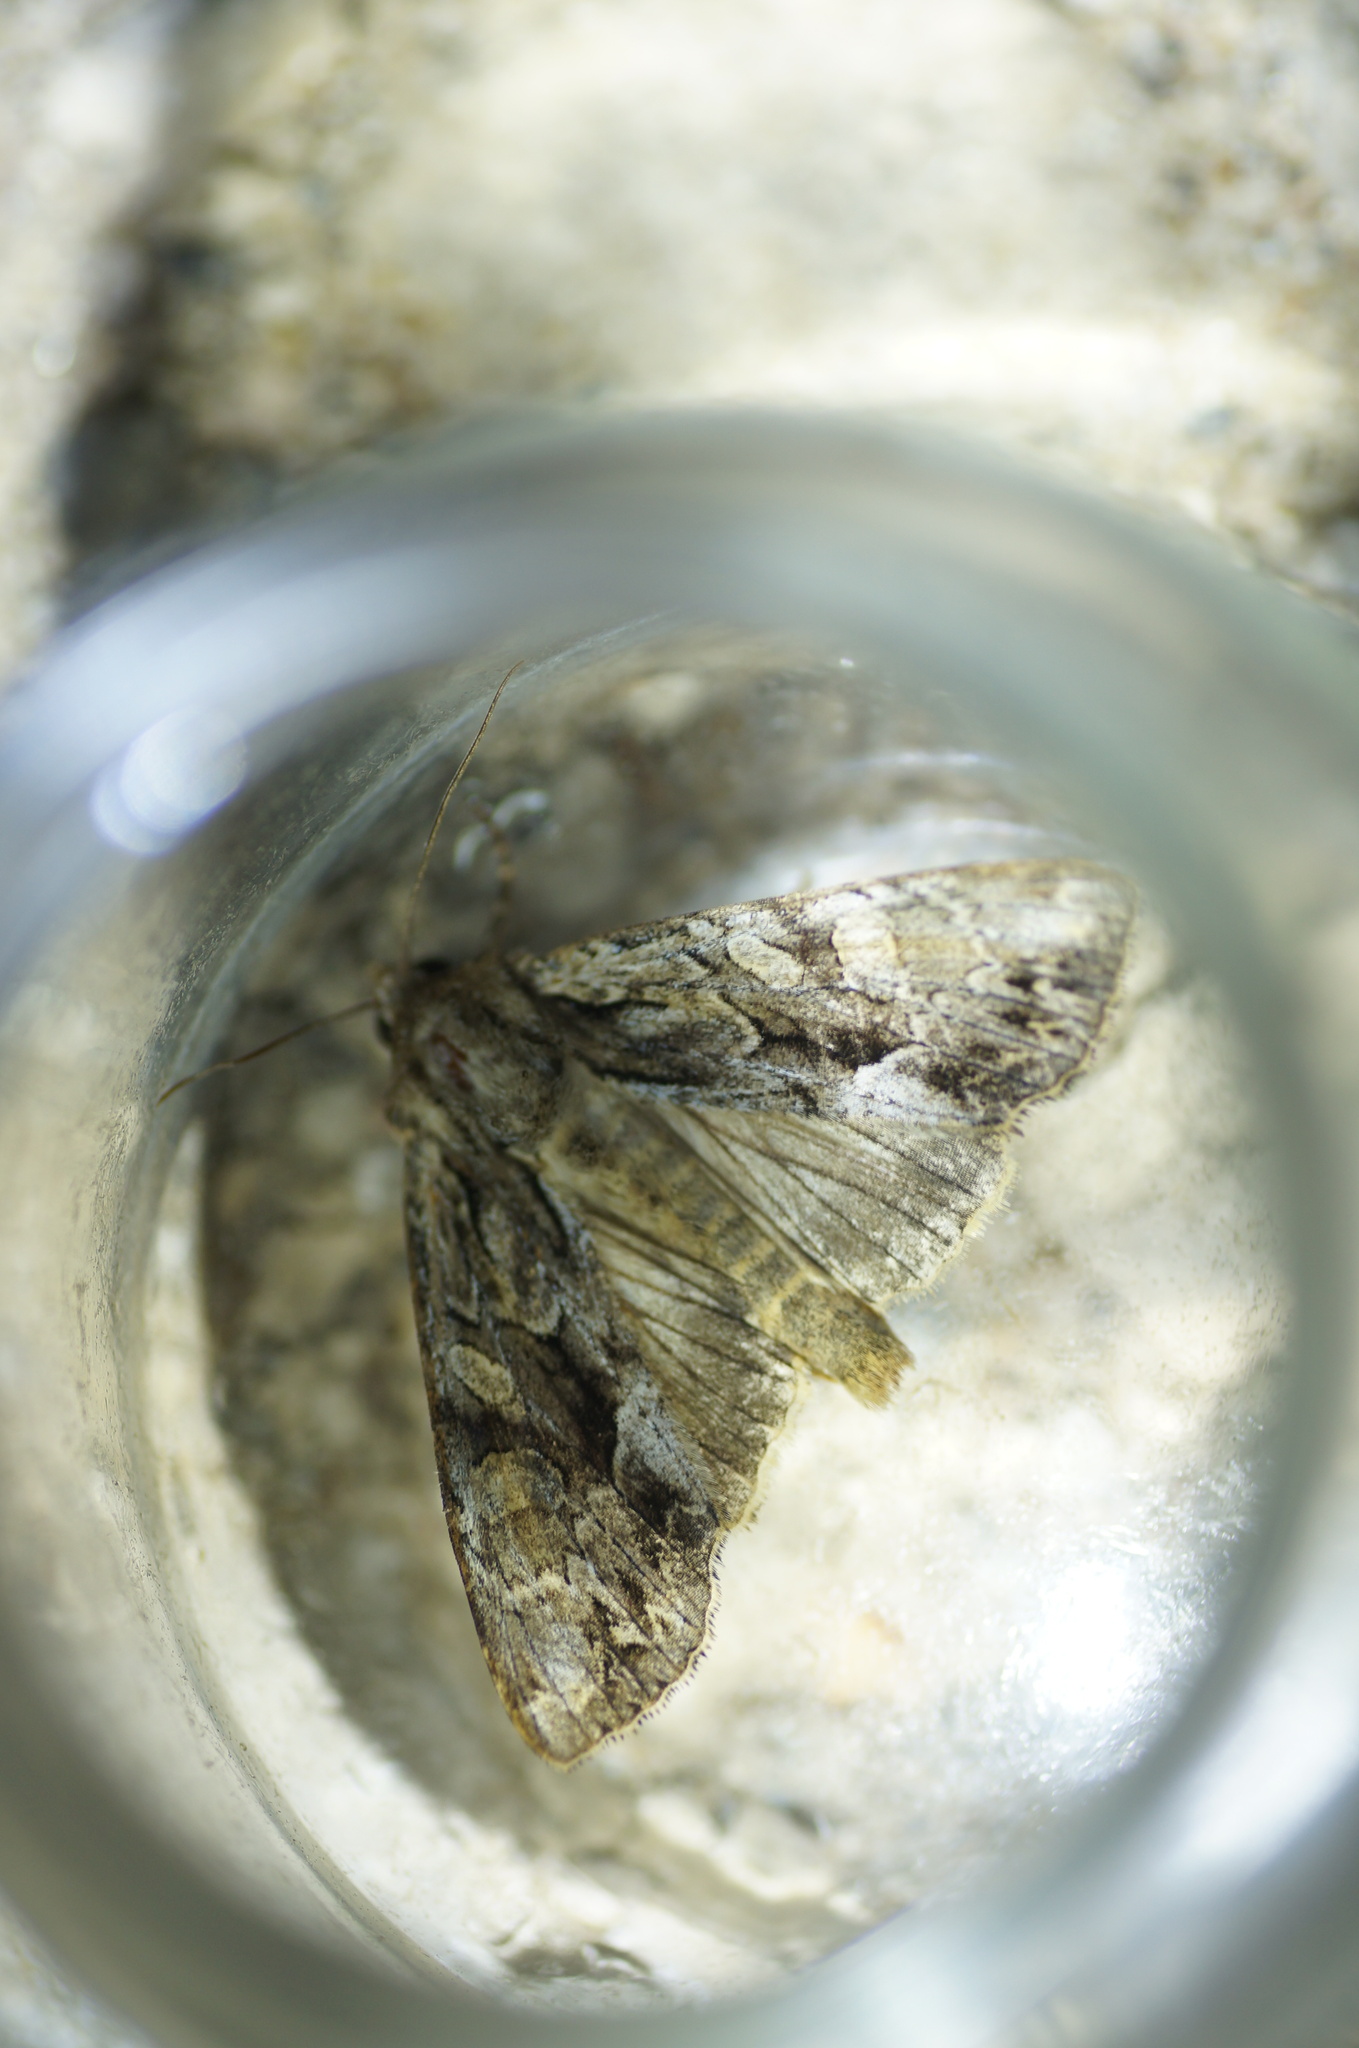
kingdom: Animalia
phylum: Arthropoda
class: Insecta
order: Lepidoptera
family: Noctuidae
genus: Apamea
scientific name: Apamea monoglypha
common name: Dark arches
